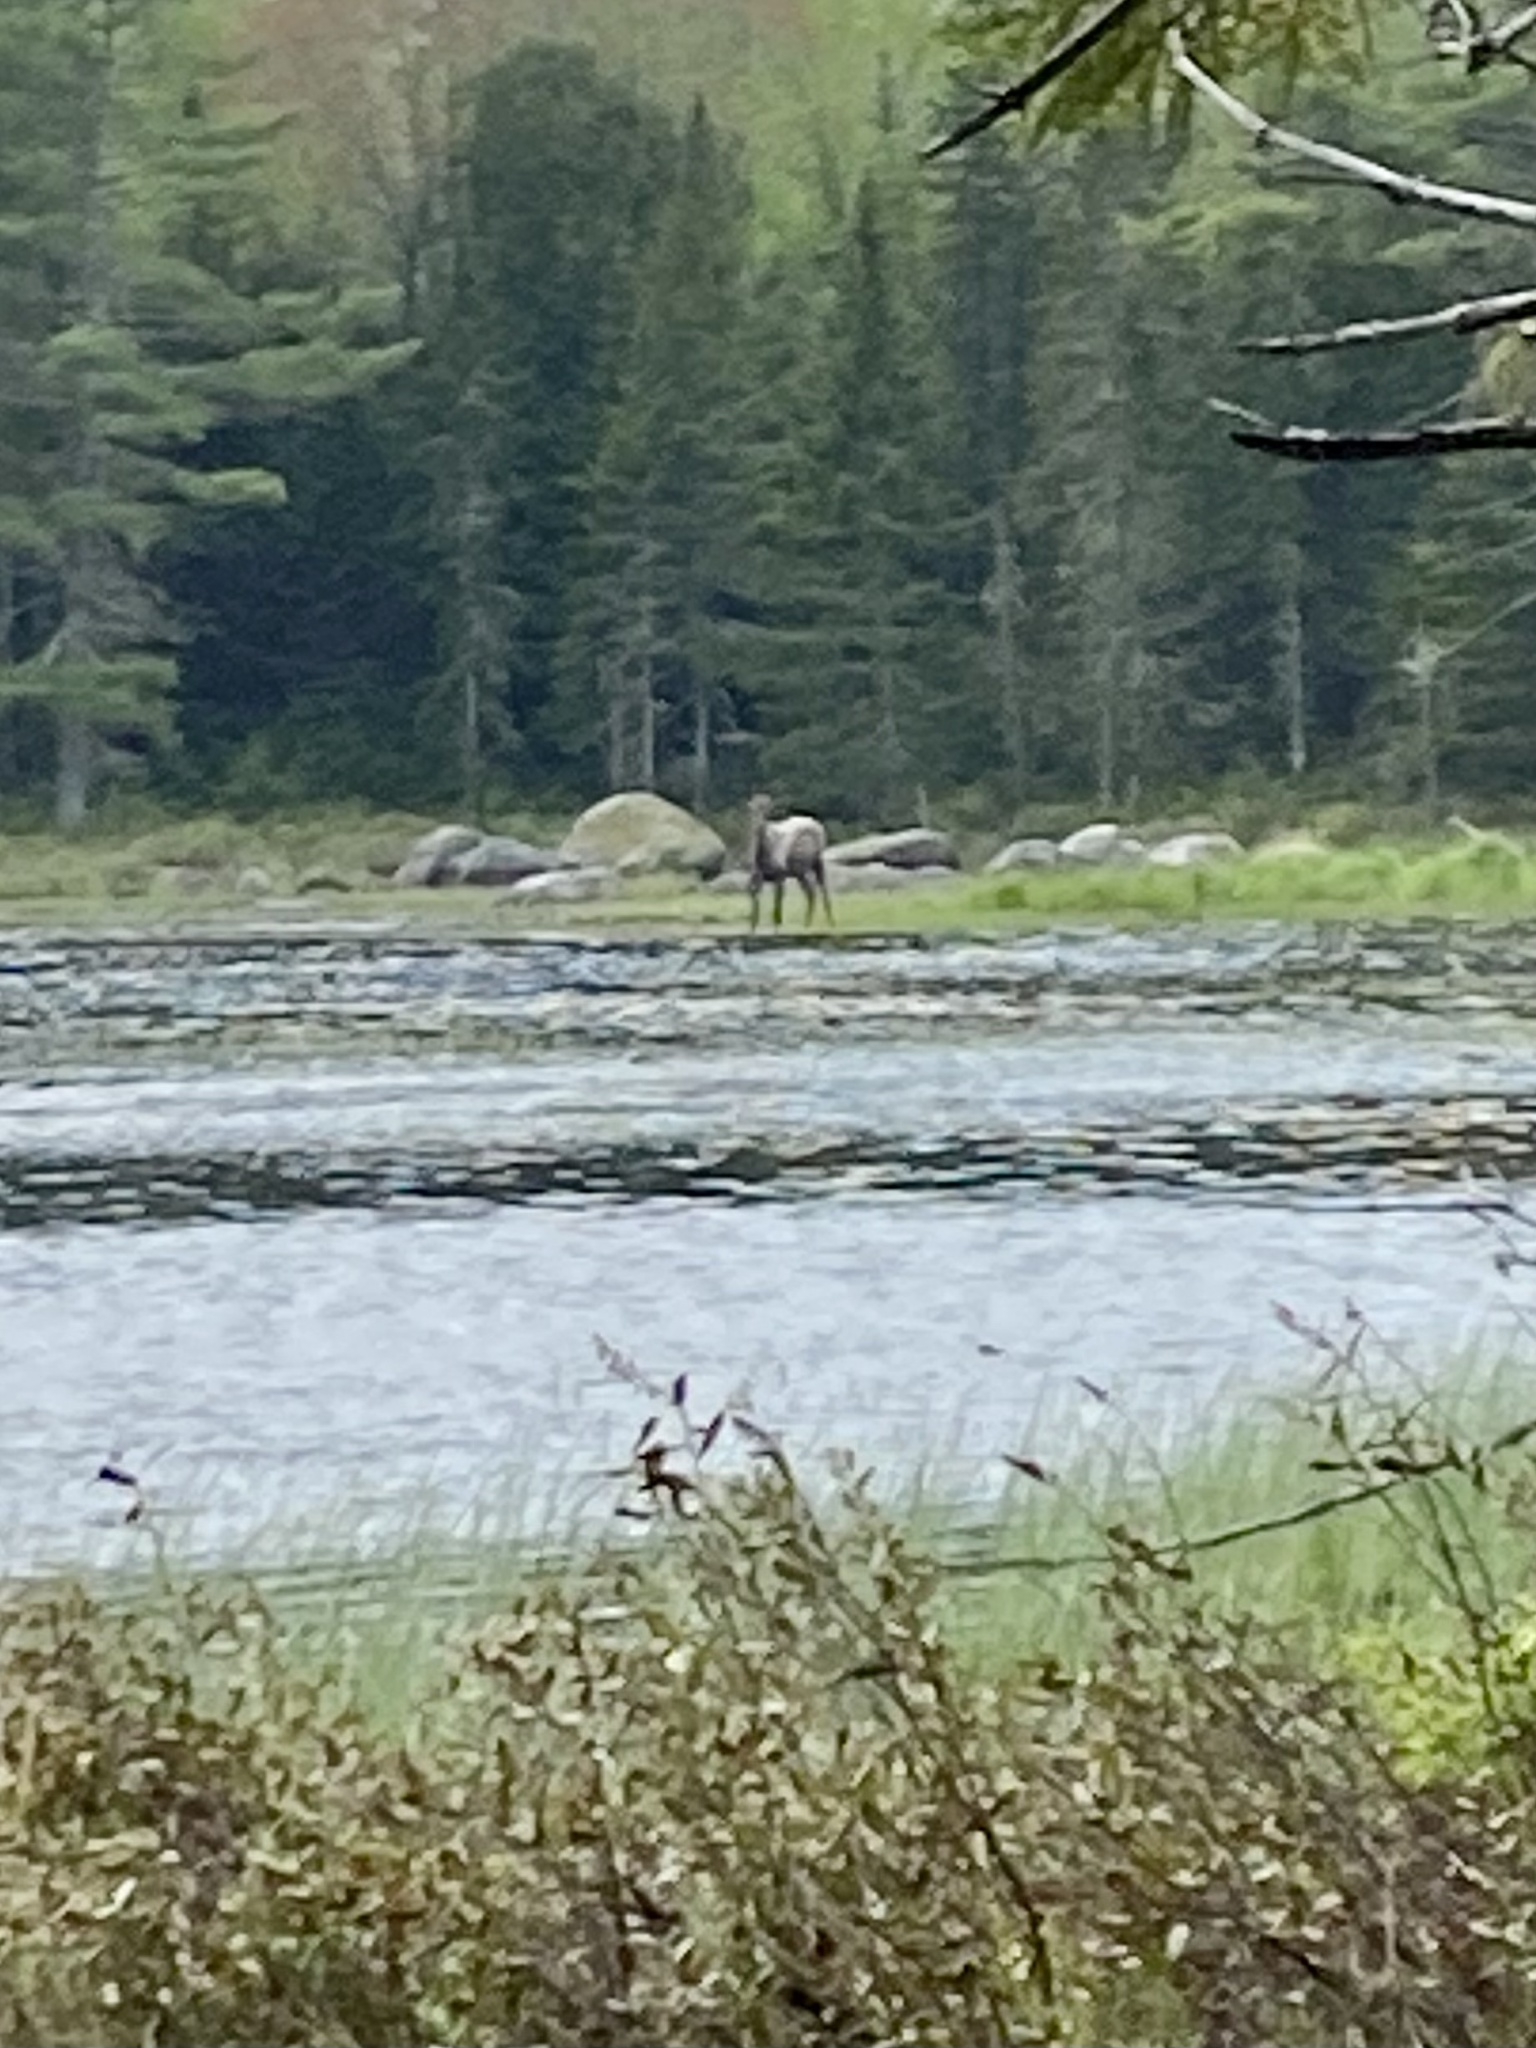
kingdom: Animalia
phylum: Chordata
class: Mammalia
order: Artiodactyla
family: Cervidae
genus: Alces
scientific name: Alces alces
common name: Moose
